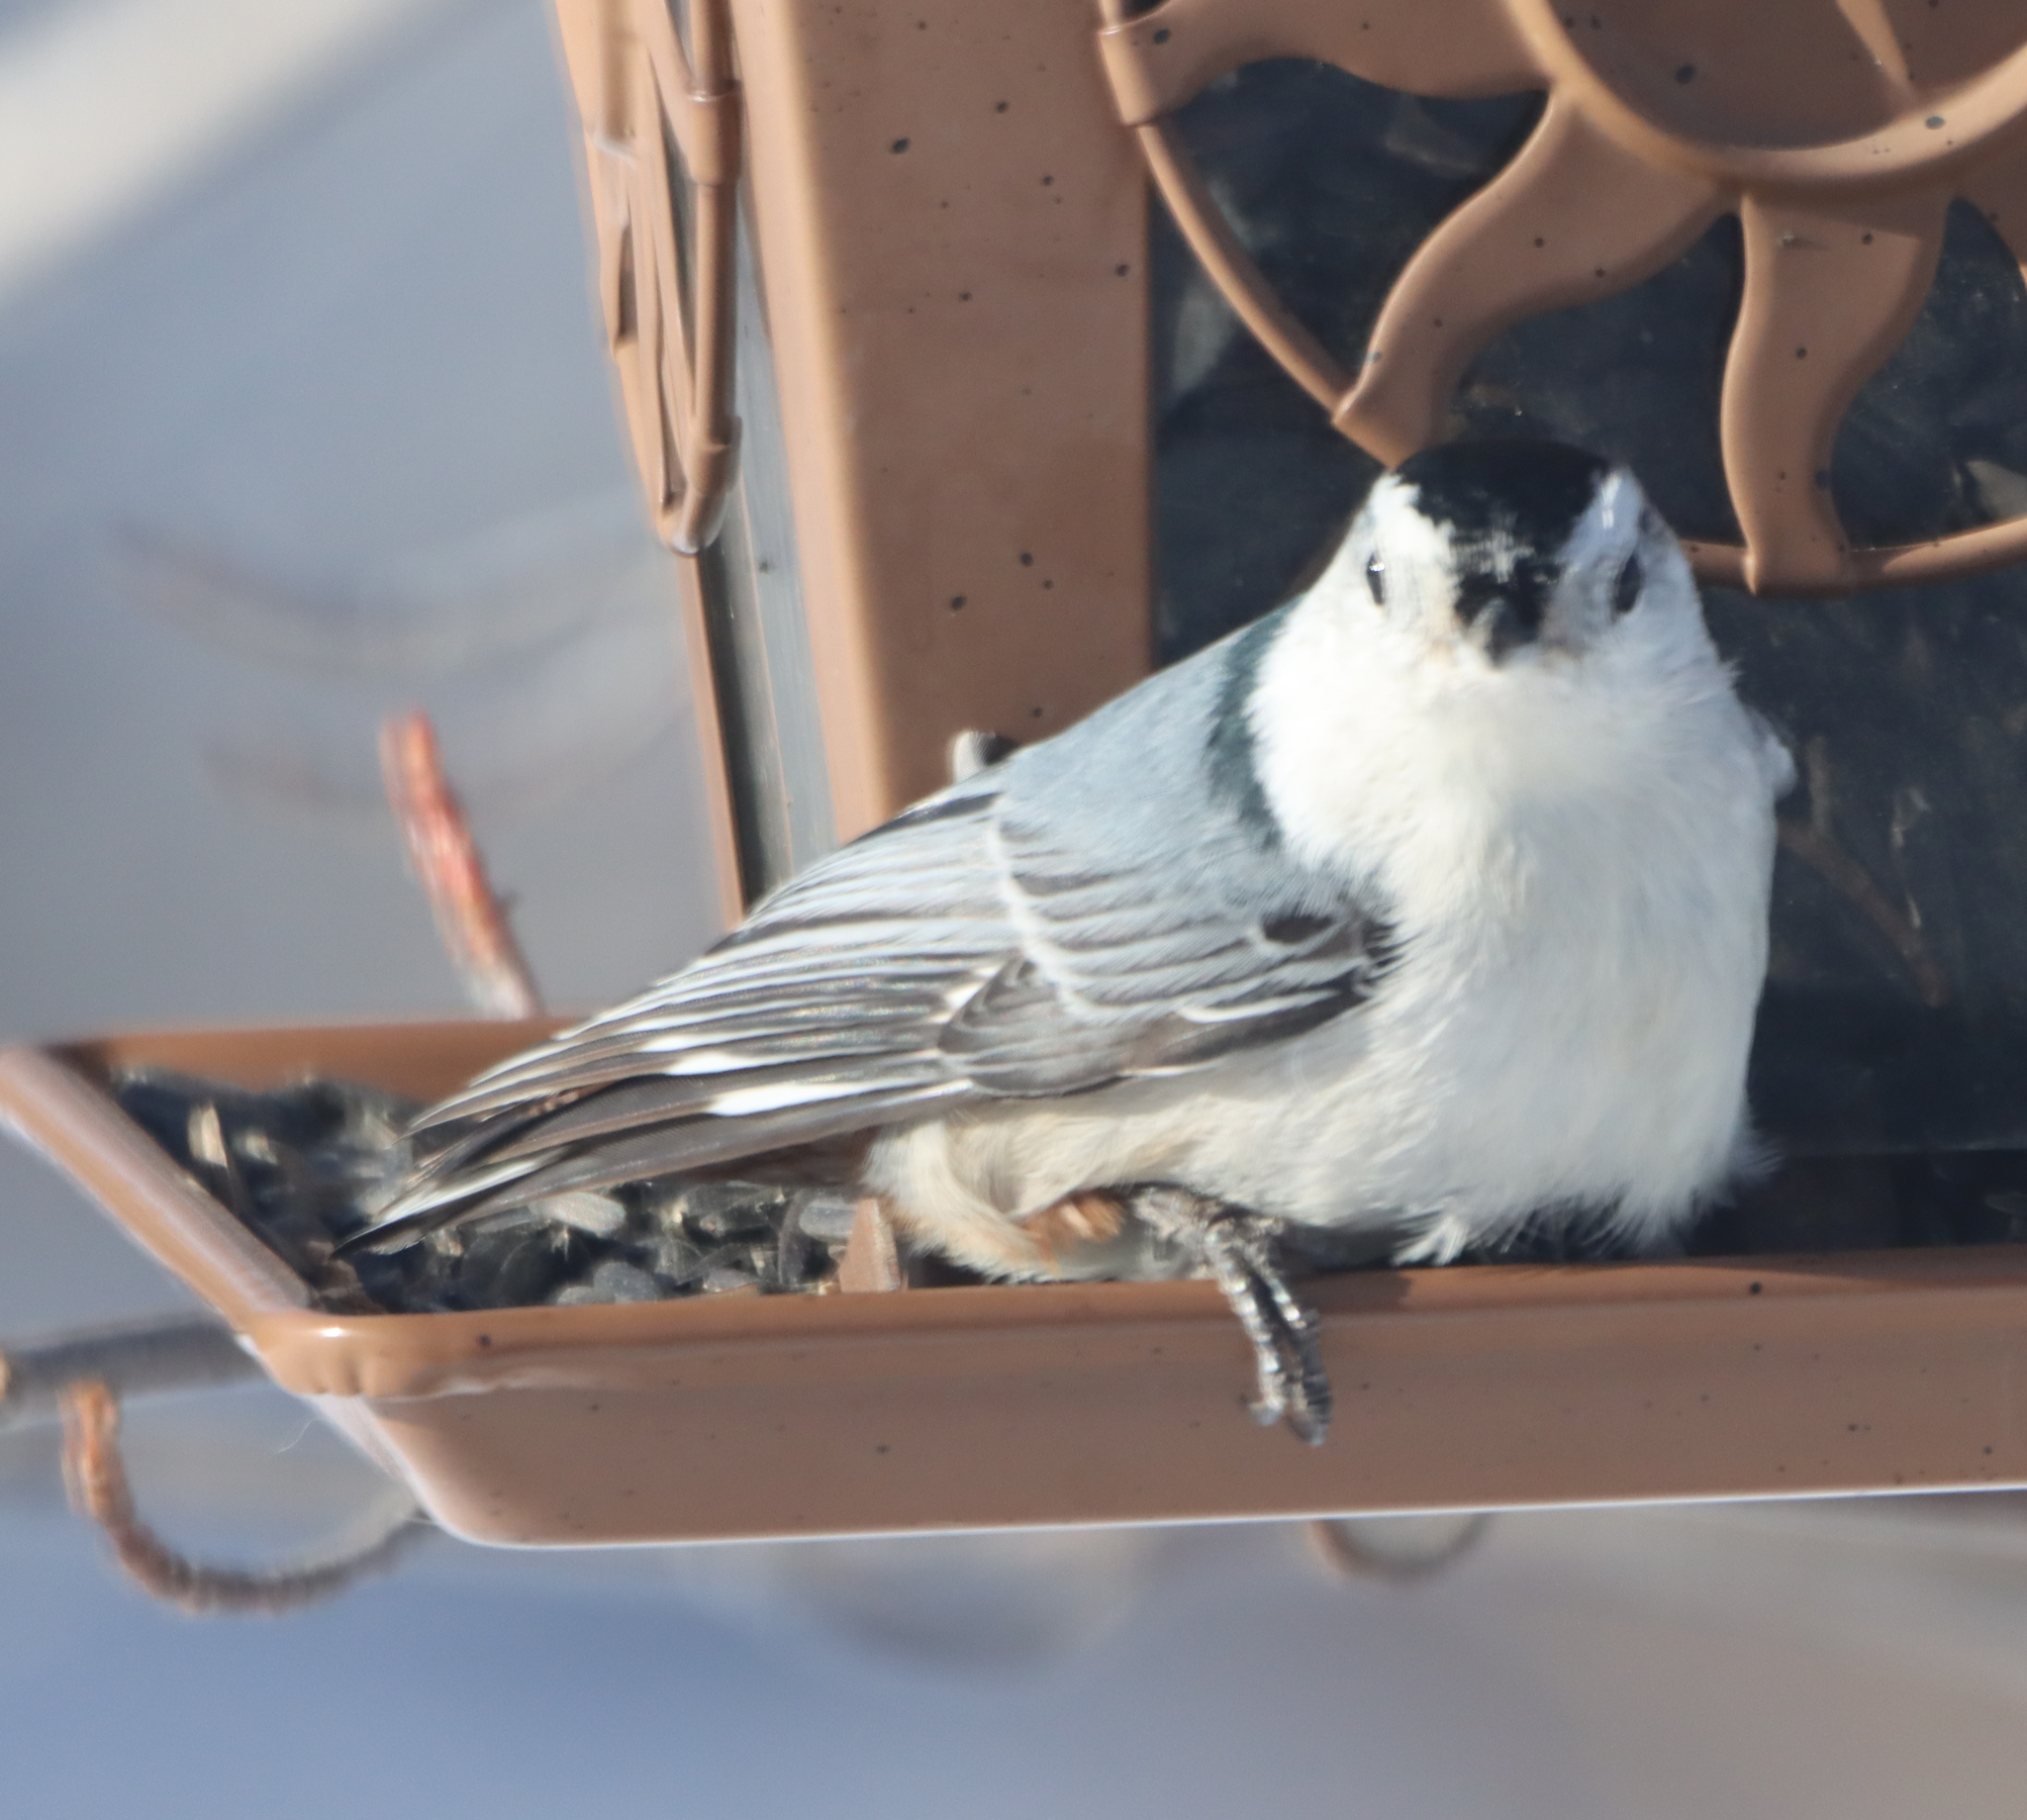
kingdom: Animalia
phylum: Chordata
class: Aves
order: Passeriformes
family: Sittidae
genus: Sitta
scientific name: Sitta carolinensis
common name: White-breasted nuthatch
